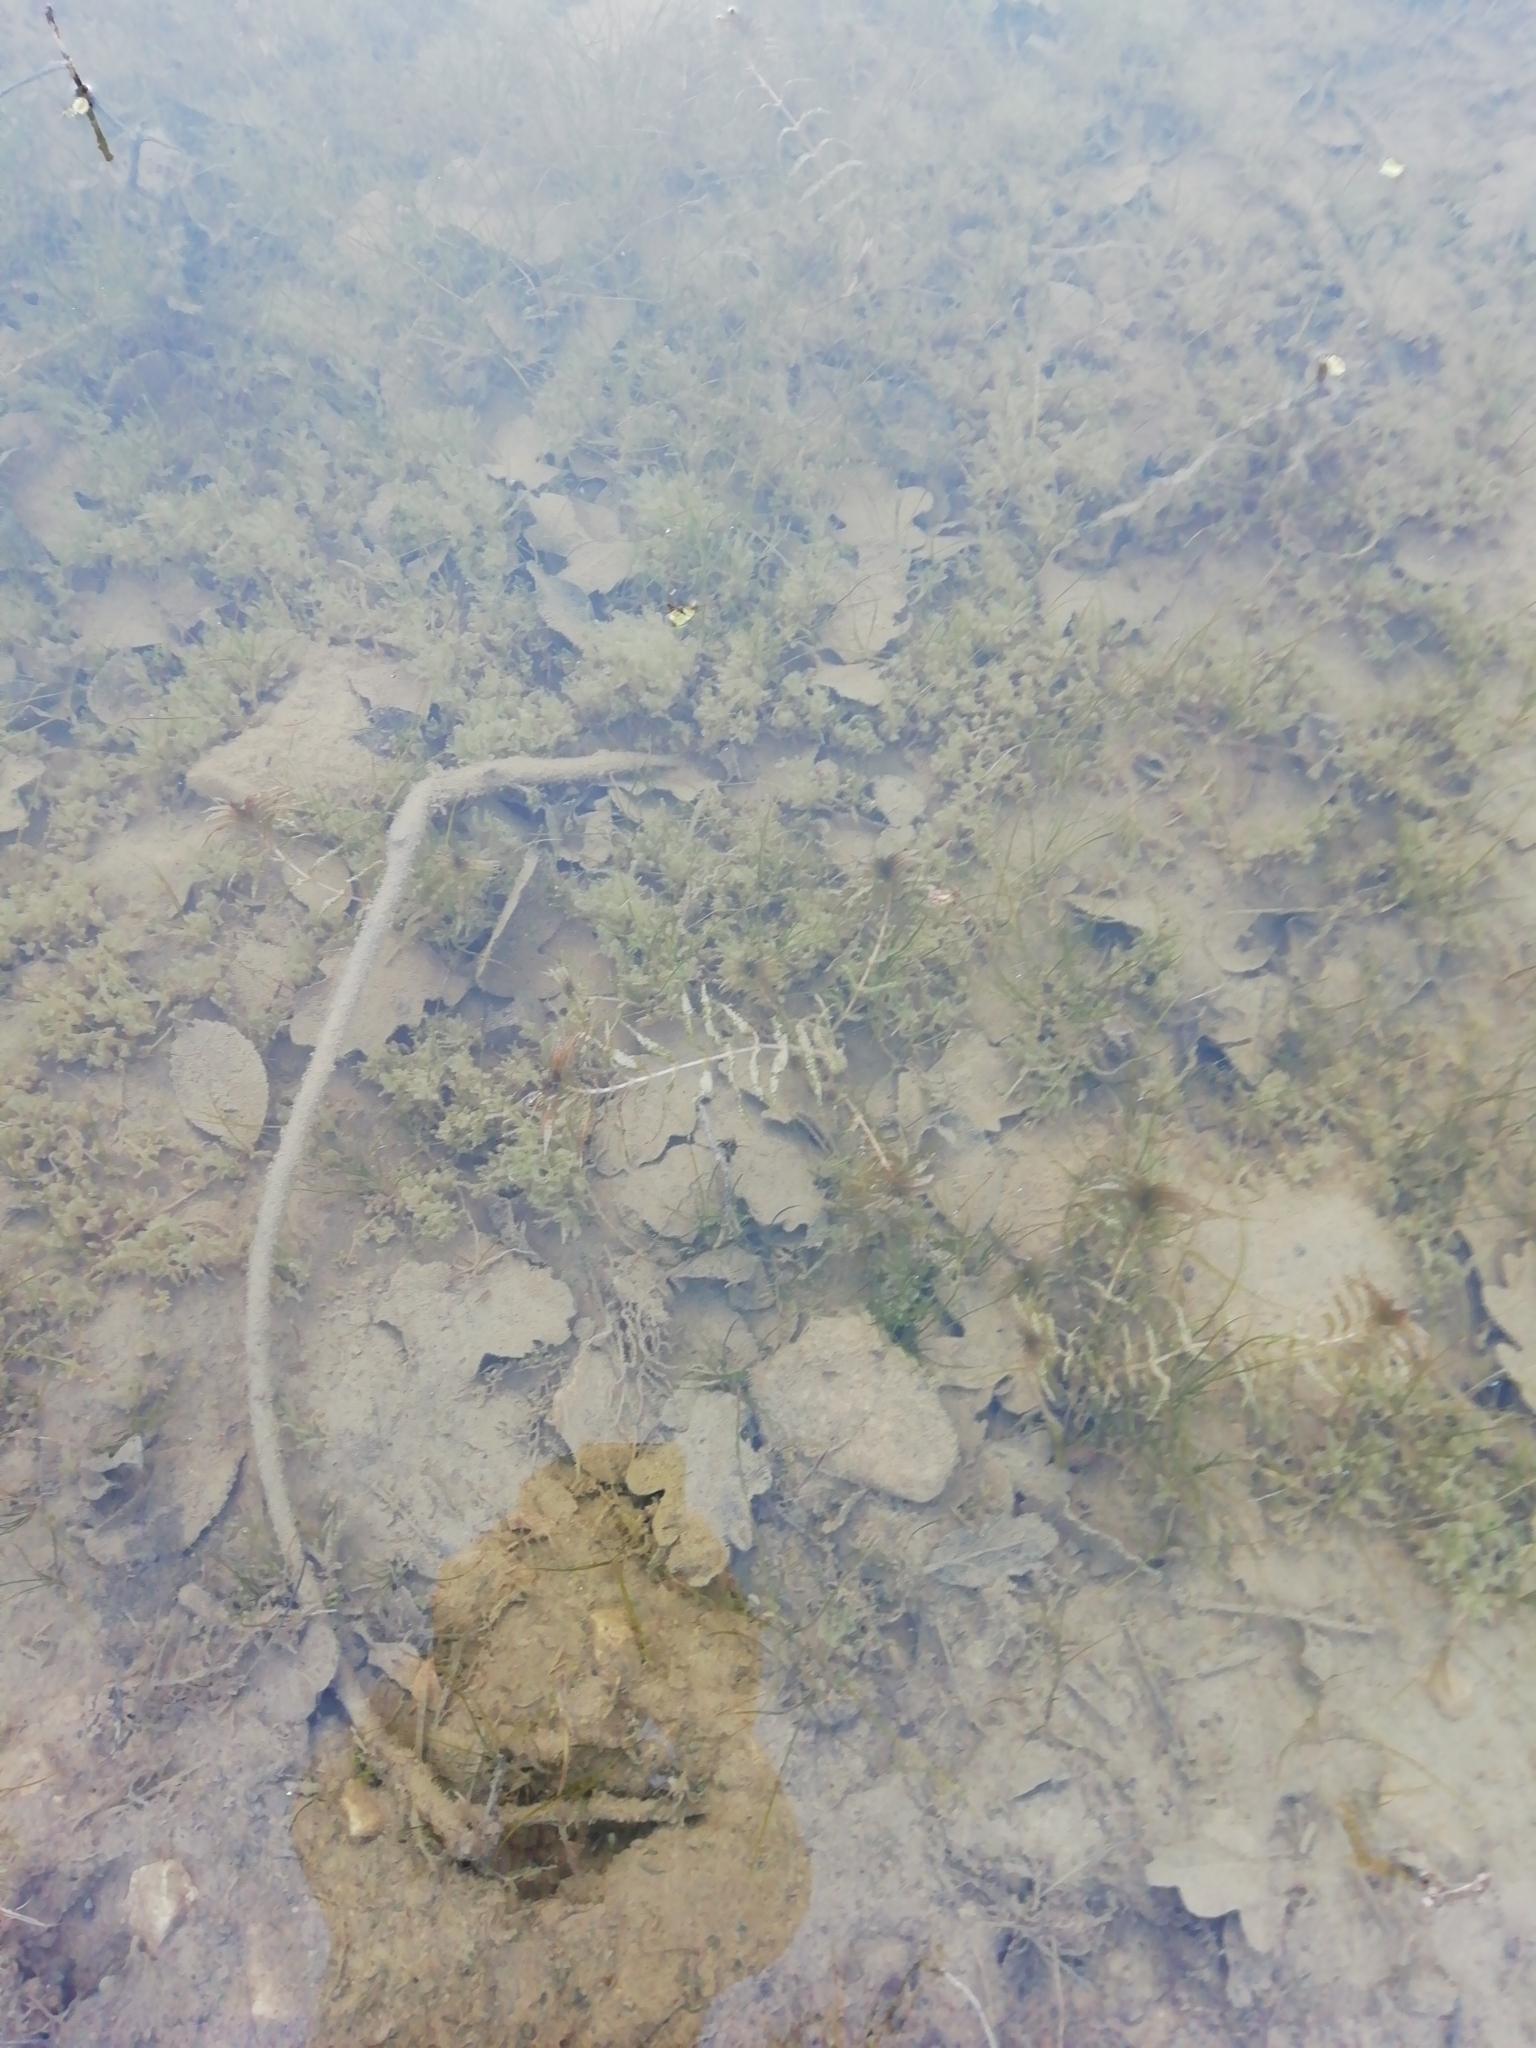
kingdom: Plantae
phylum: Tracheophyta
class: Liliopsida
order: Alismatales
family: Potamogetonaceae
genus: Groenlandia
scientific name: Groenlandia densa
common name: Opposite-leaved pondweed
